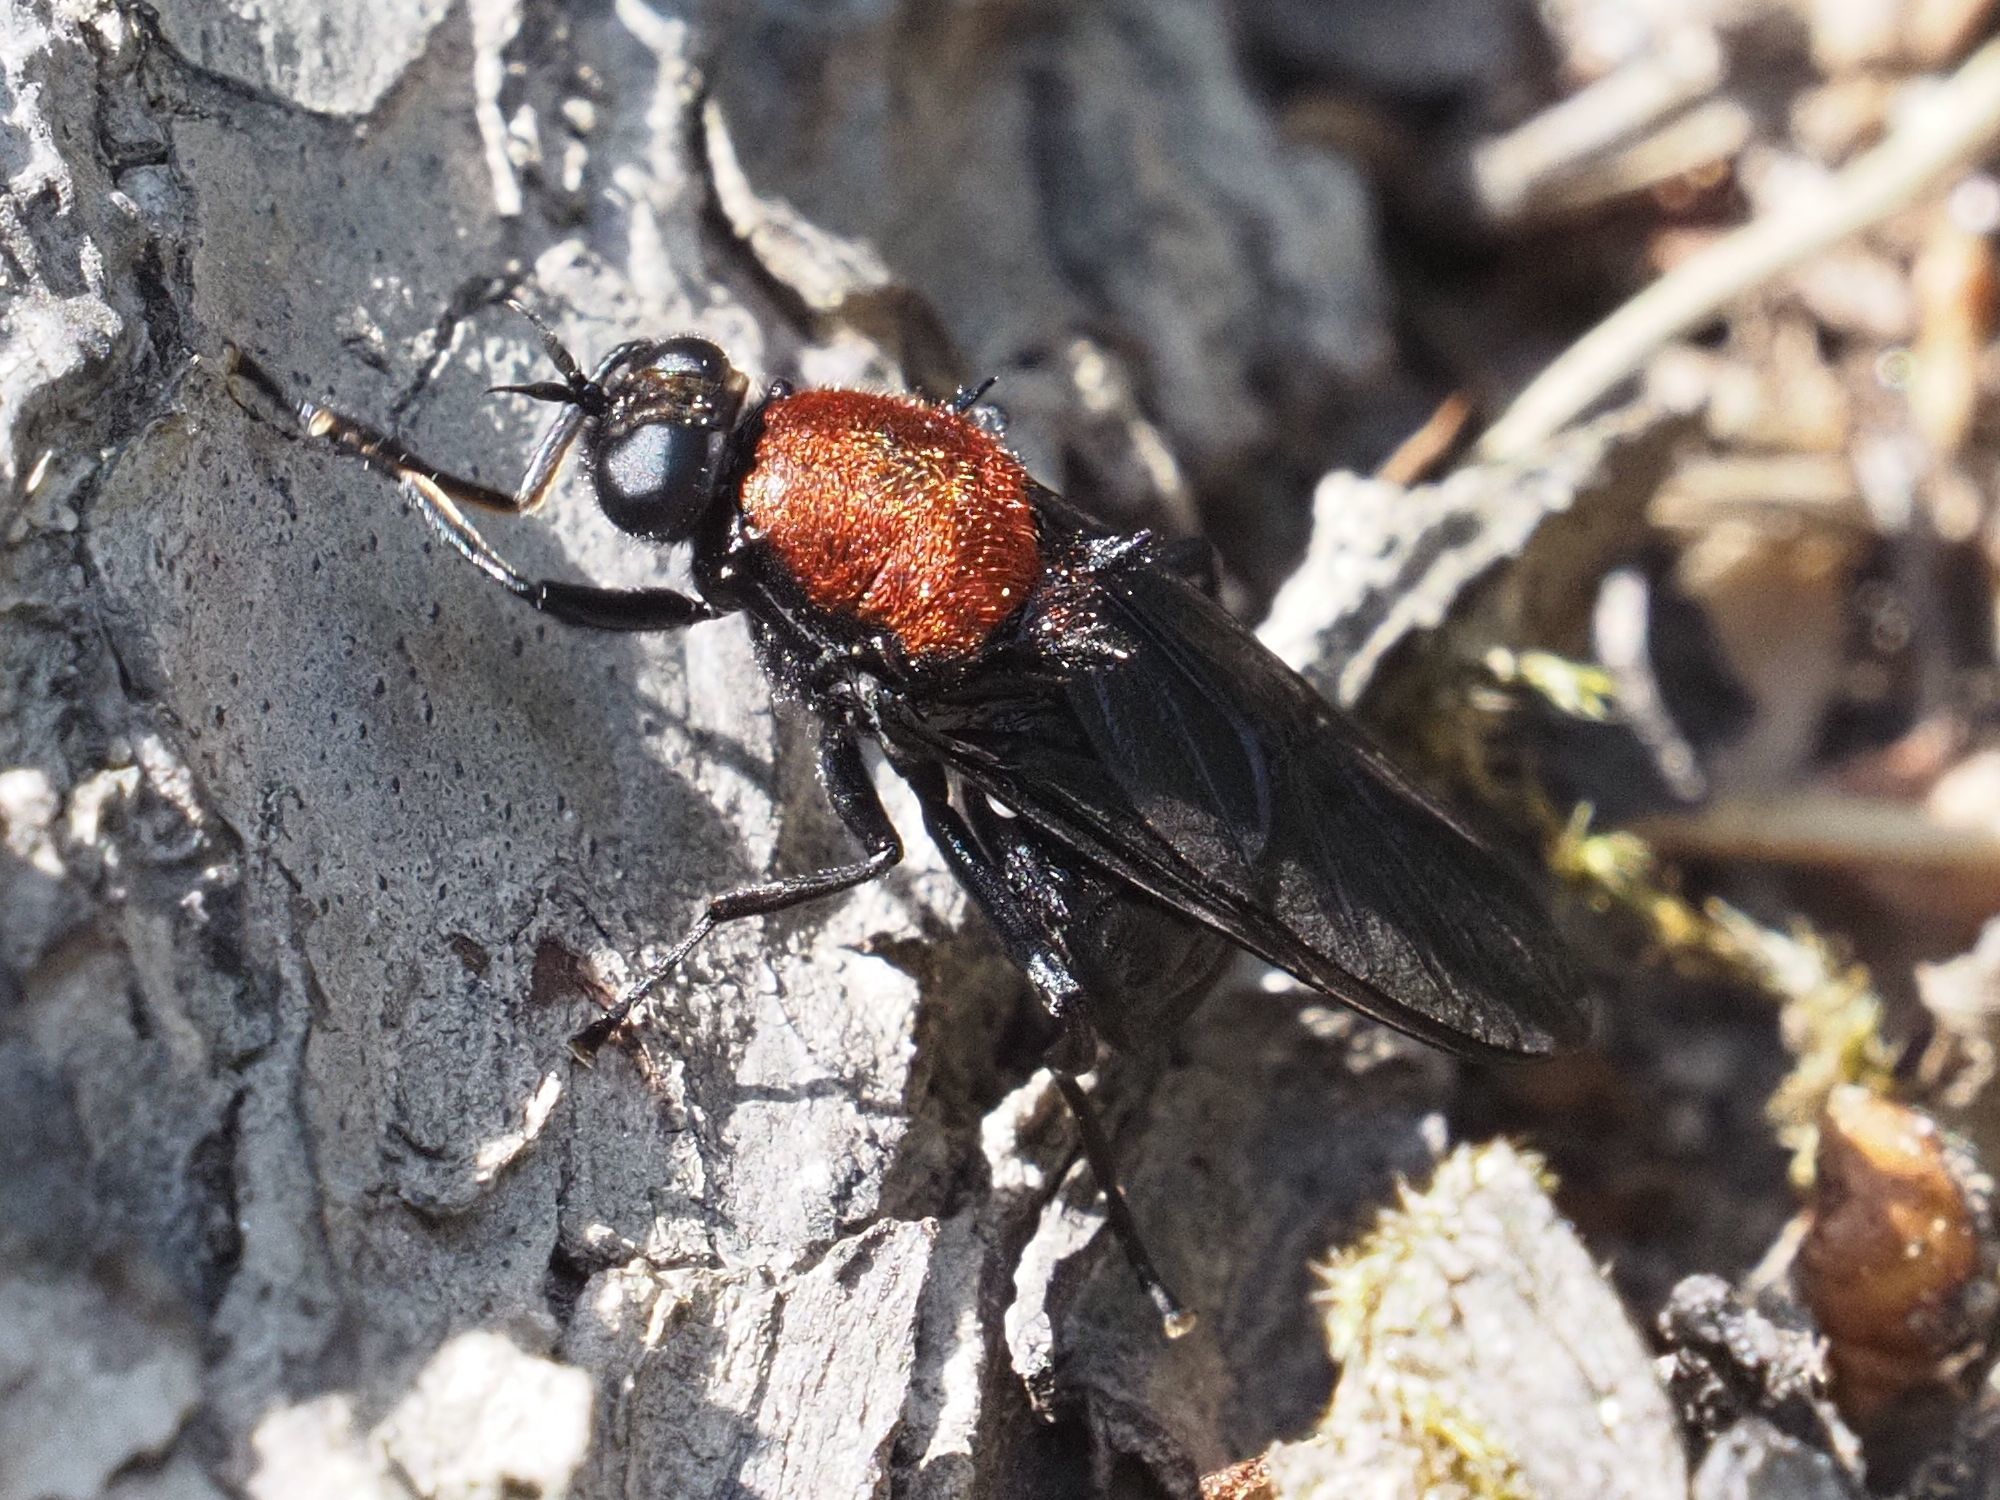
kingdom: Animalia
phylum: Arthropoda
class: Insecta
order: Diptera
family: Stratiomyidae
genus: Clitellaria
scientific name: Clitellaria ephippium
